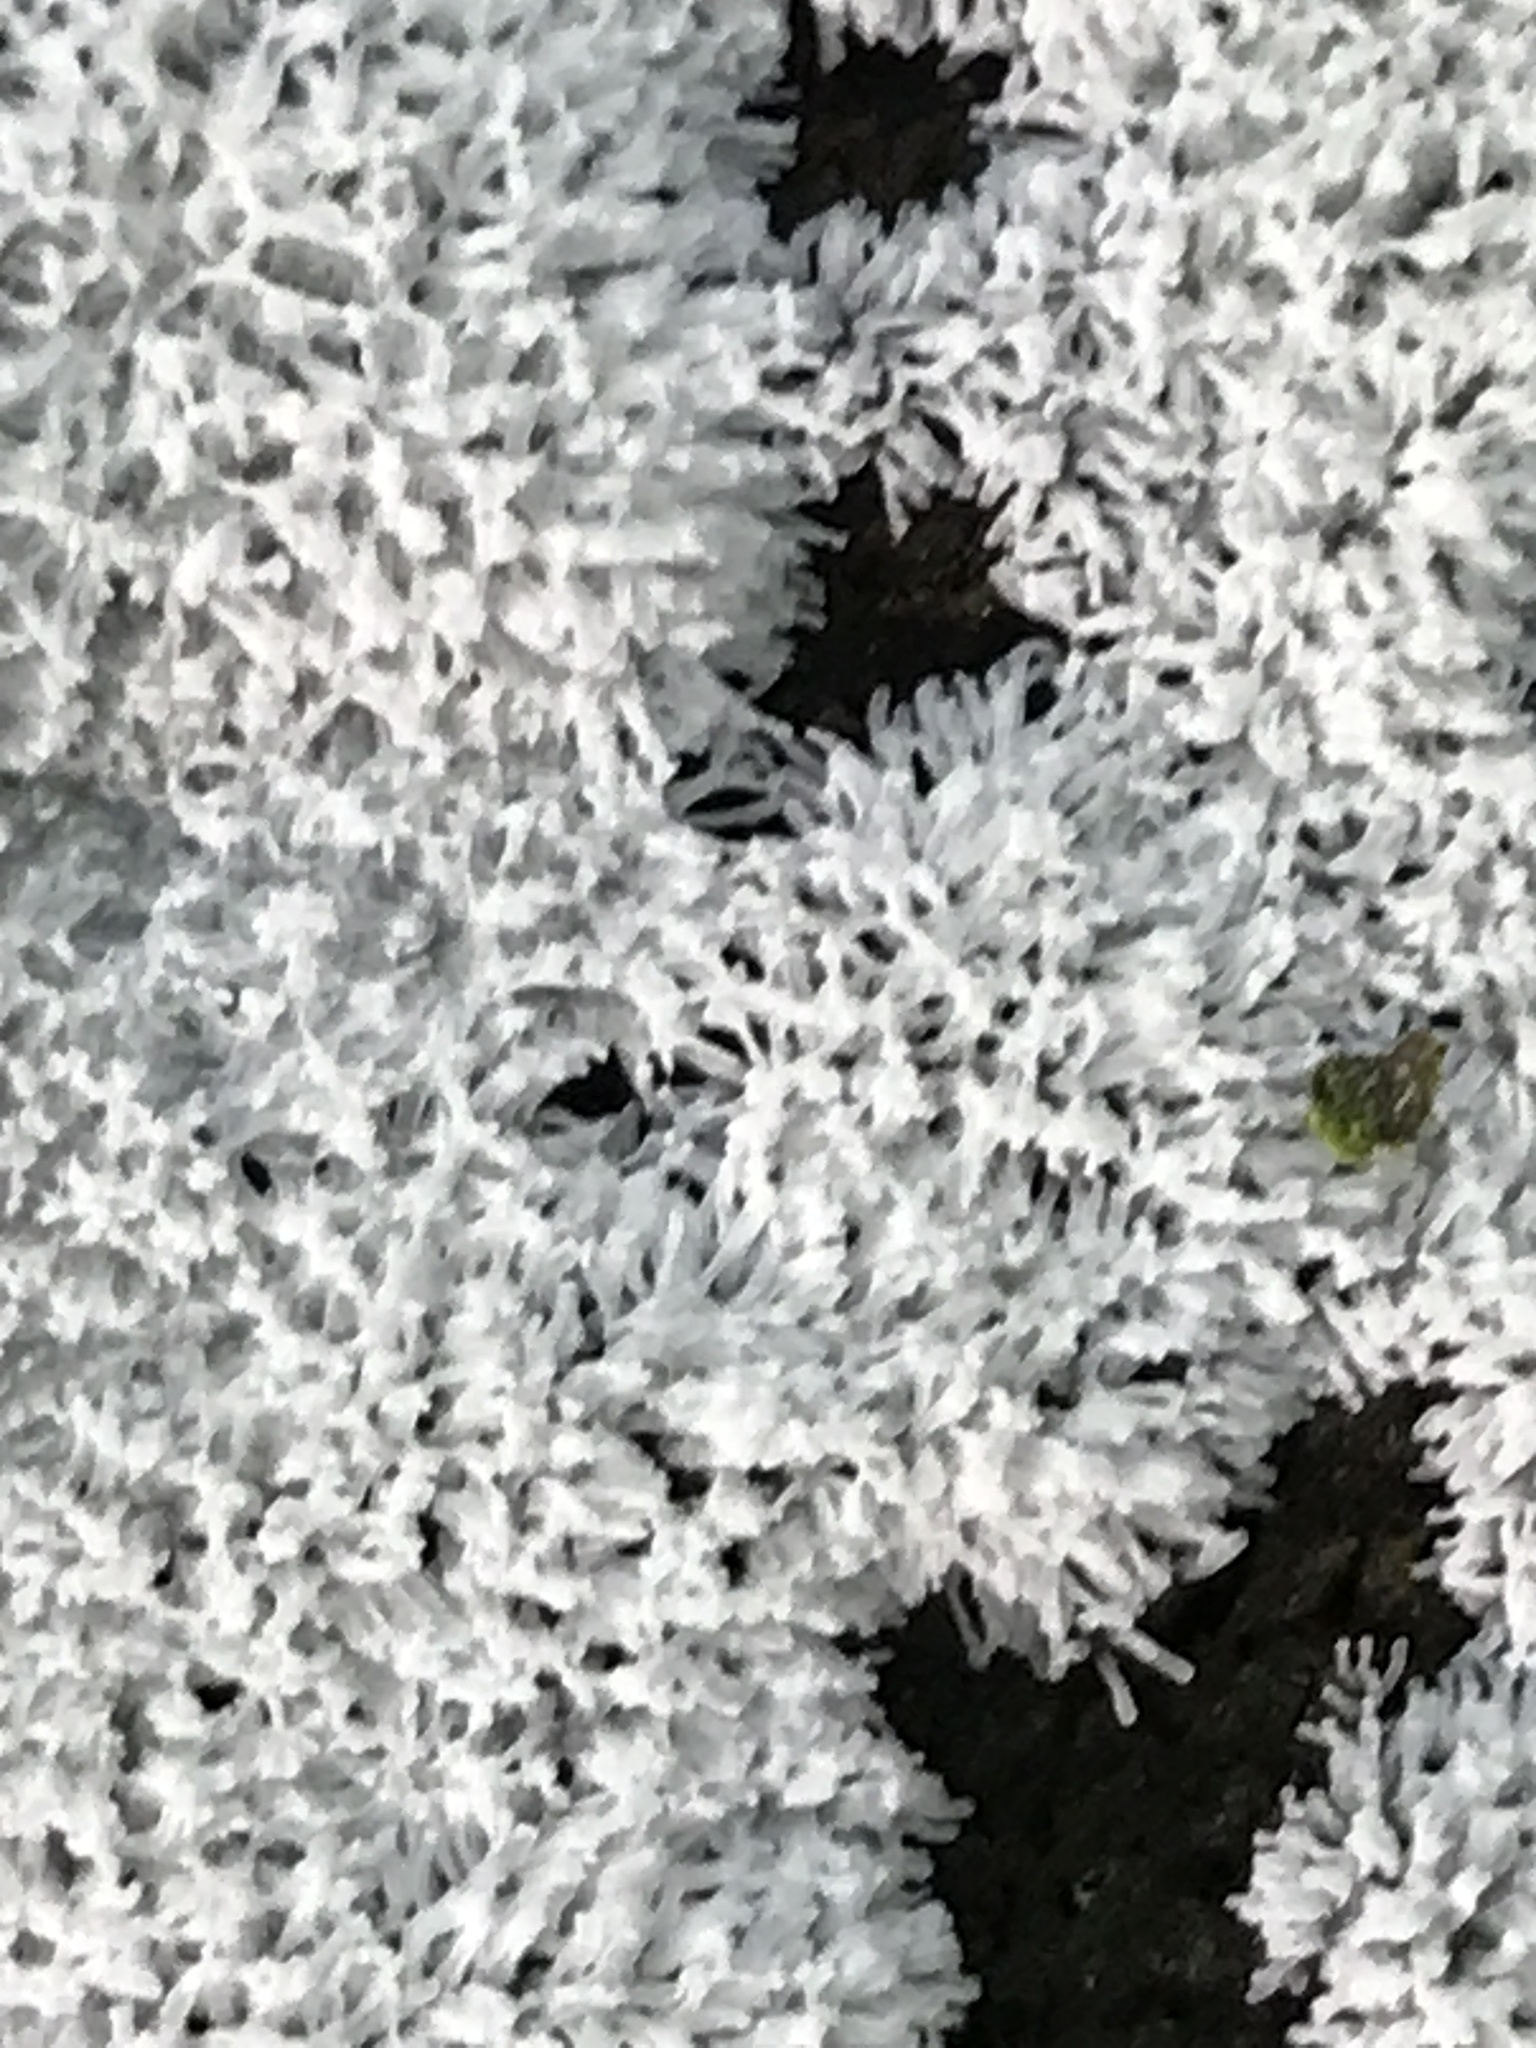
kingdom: Protozoa
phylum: Mycetozoa
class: Protosteliomycetes
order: Ceratiomyxales
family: Ceratiomyxaceae
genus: Ceratiomyxa
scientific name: Ceratiomyxa fruticulosa
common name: Honeycomb coral slime mold
